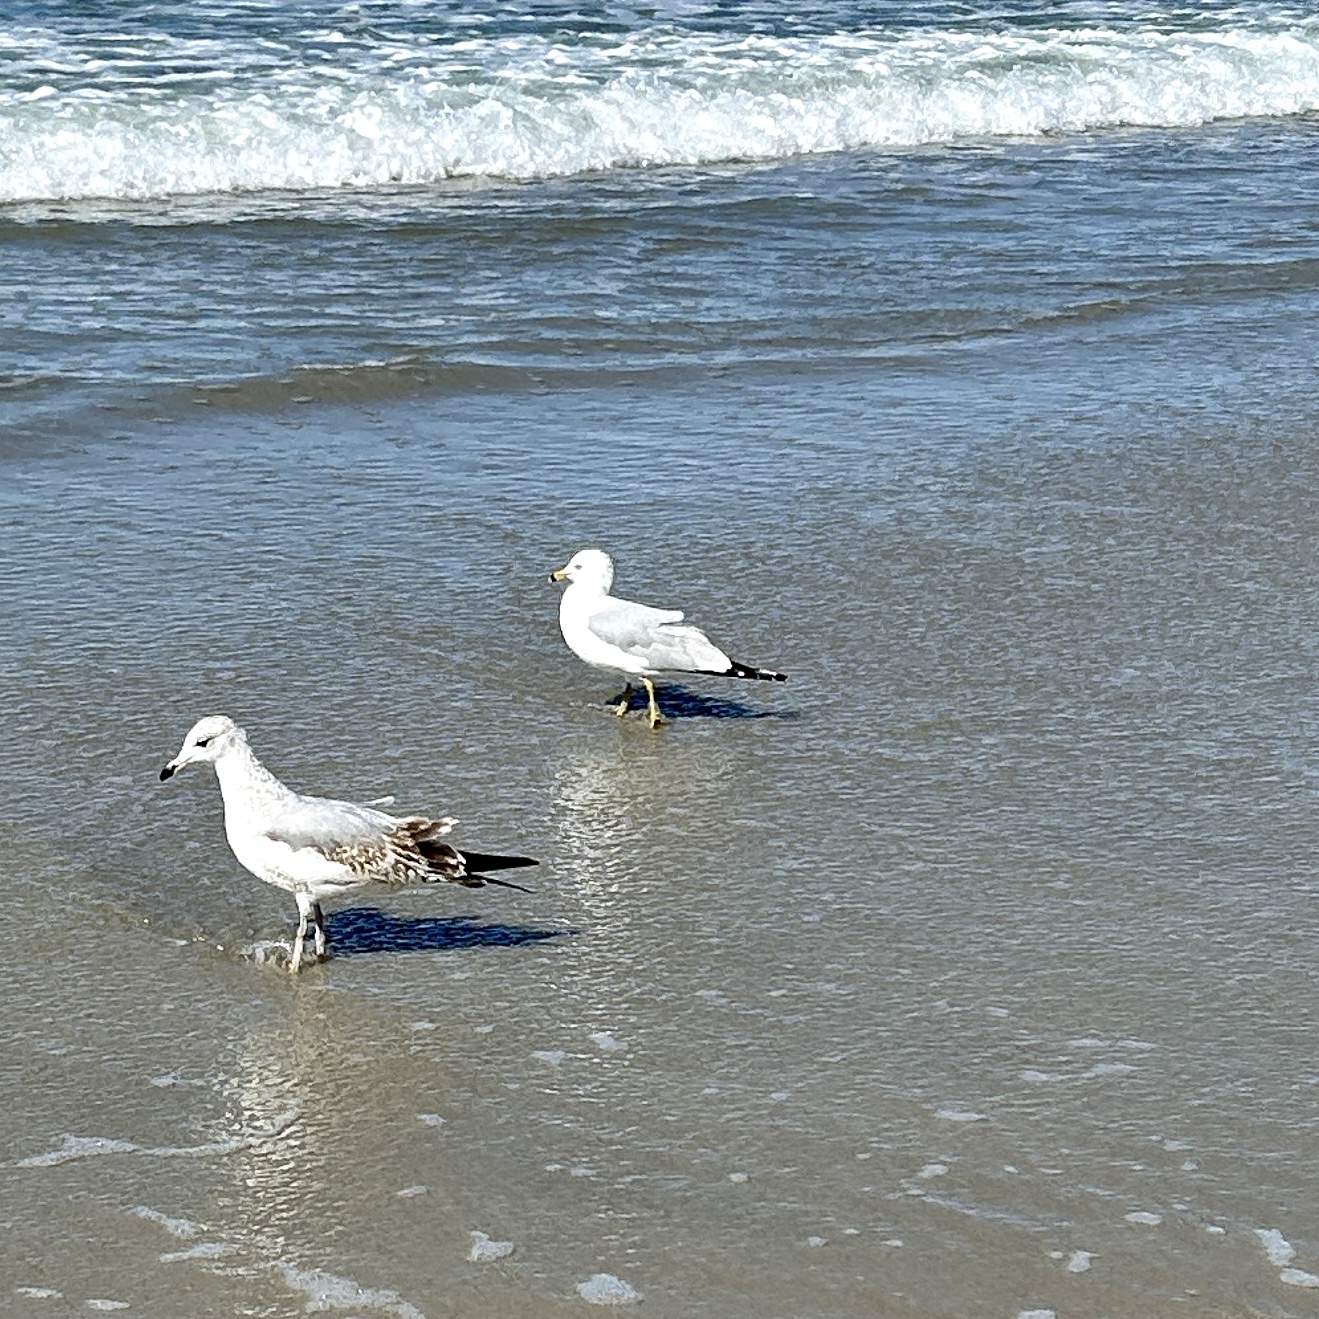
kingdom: Animalia
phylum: Chordata
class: Aves
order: Charadriiformes
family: Laridae
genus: Larus
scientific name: Larus delawarensis
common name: Ring-billed gull
